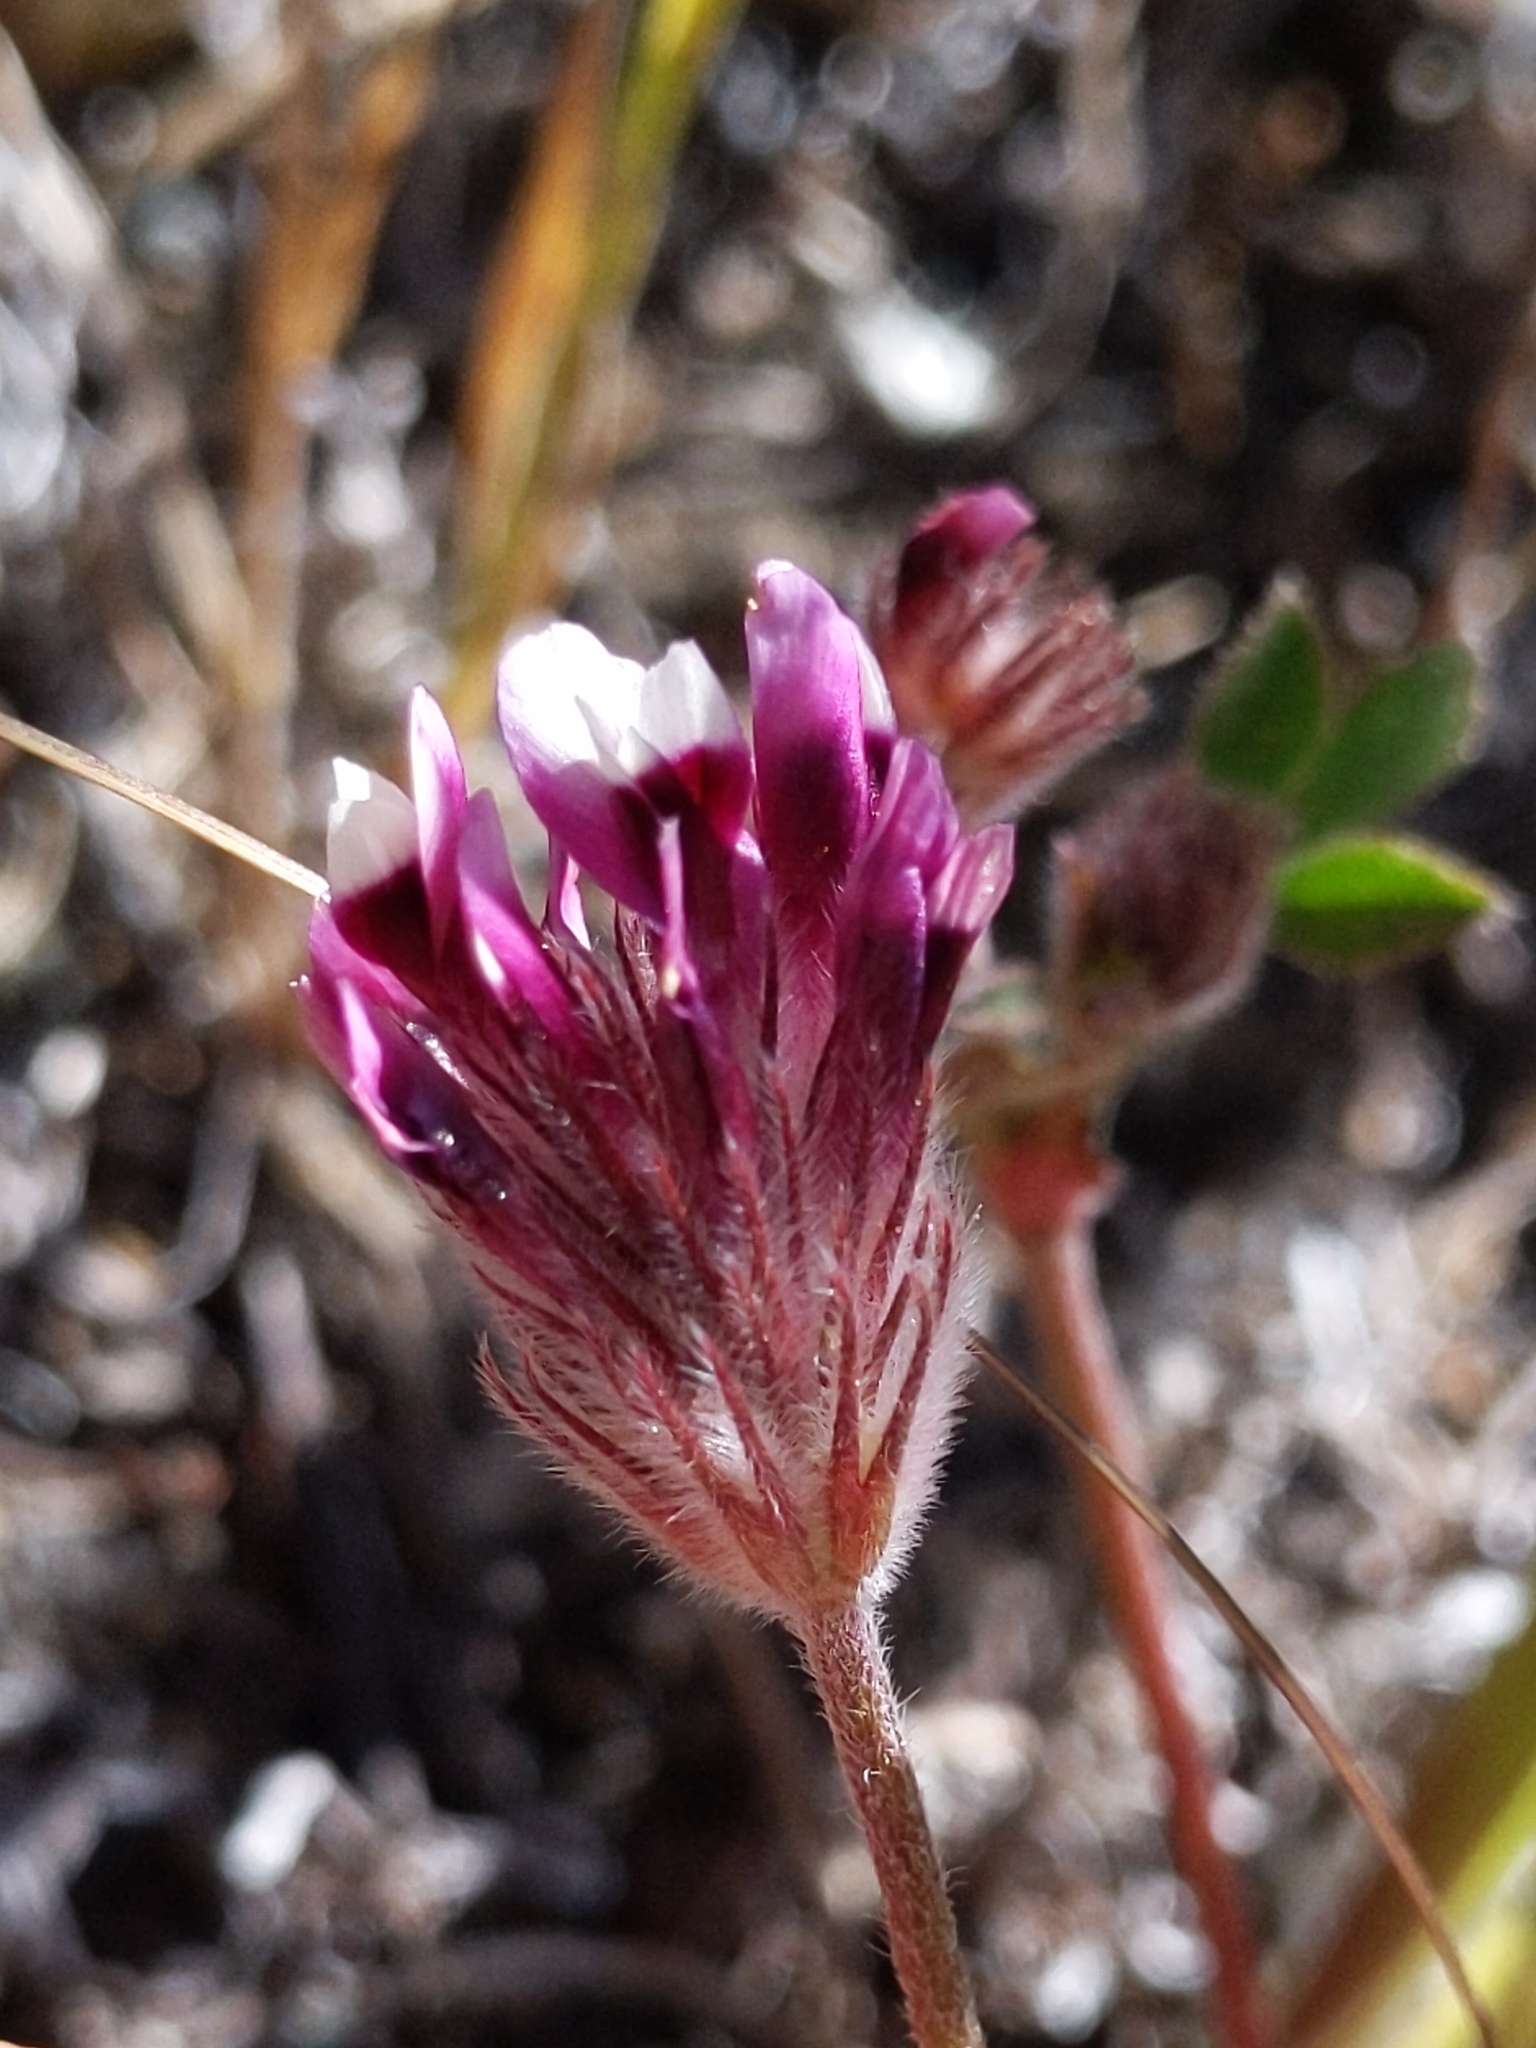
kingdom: Plantae
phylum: Tracheophyta
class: Magnoliopsida
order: Fabales
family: Fabaceae
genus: Trifolium
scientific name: Trifolium dichotomum
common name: Branched indian clover
